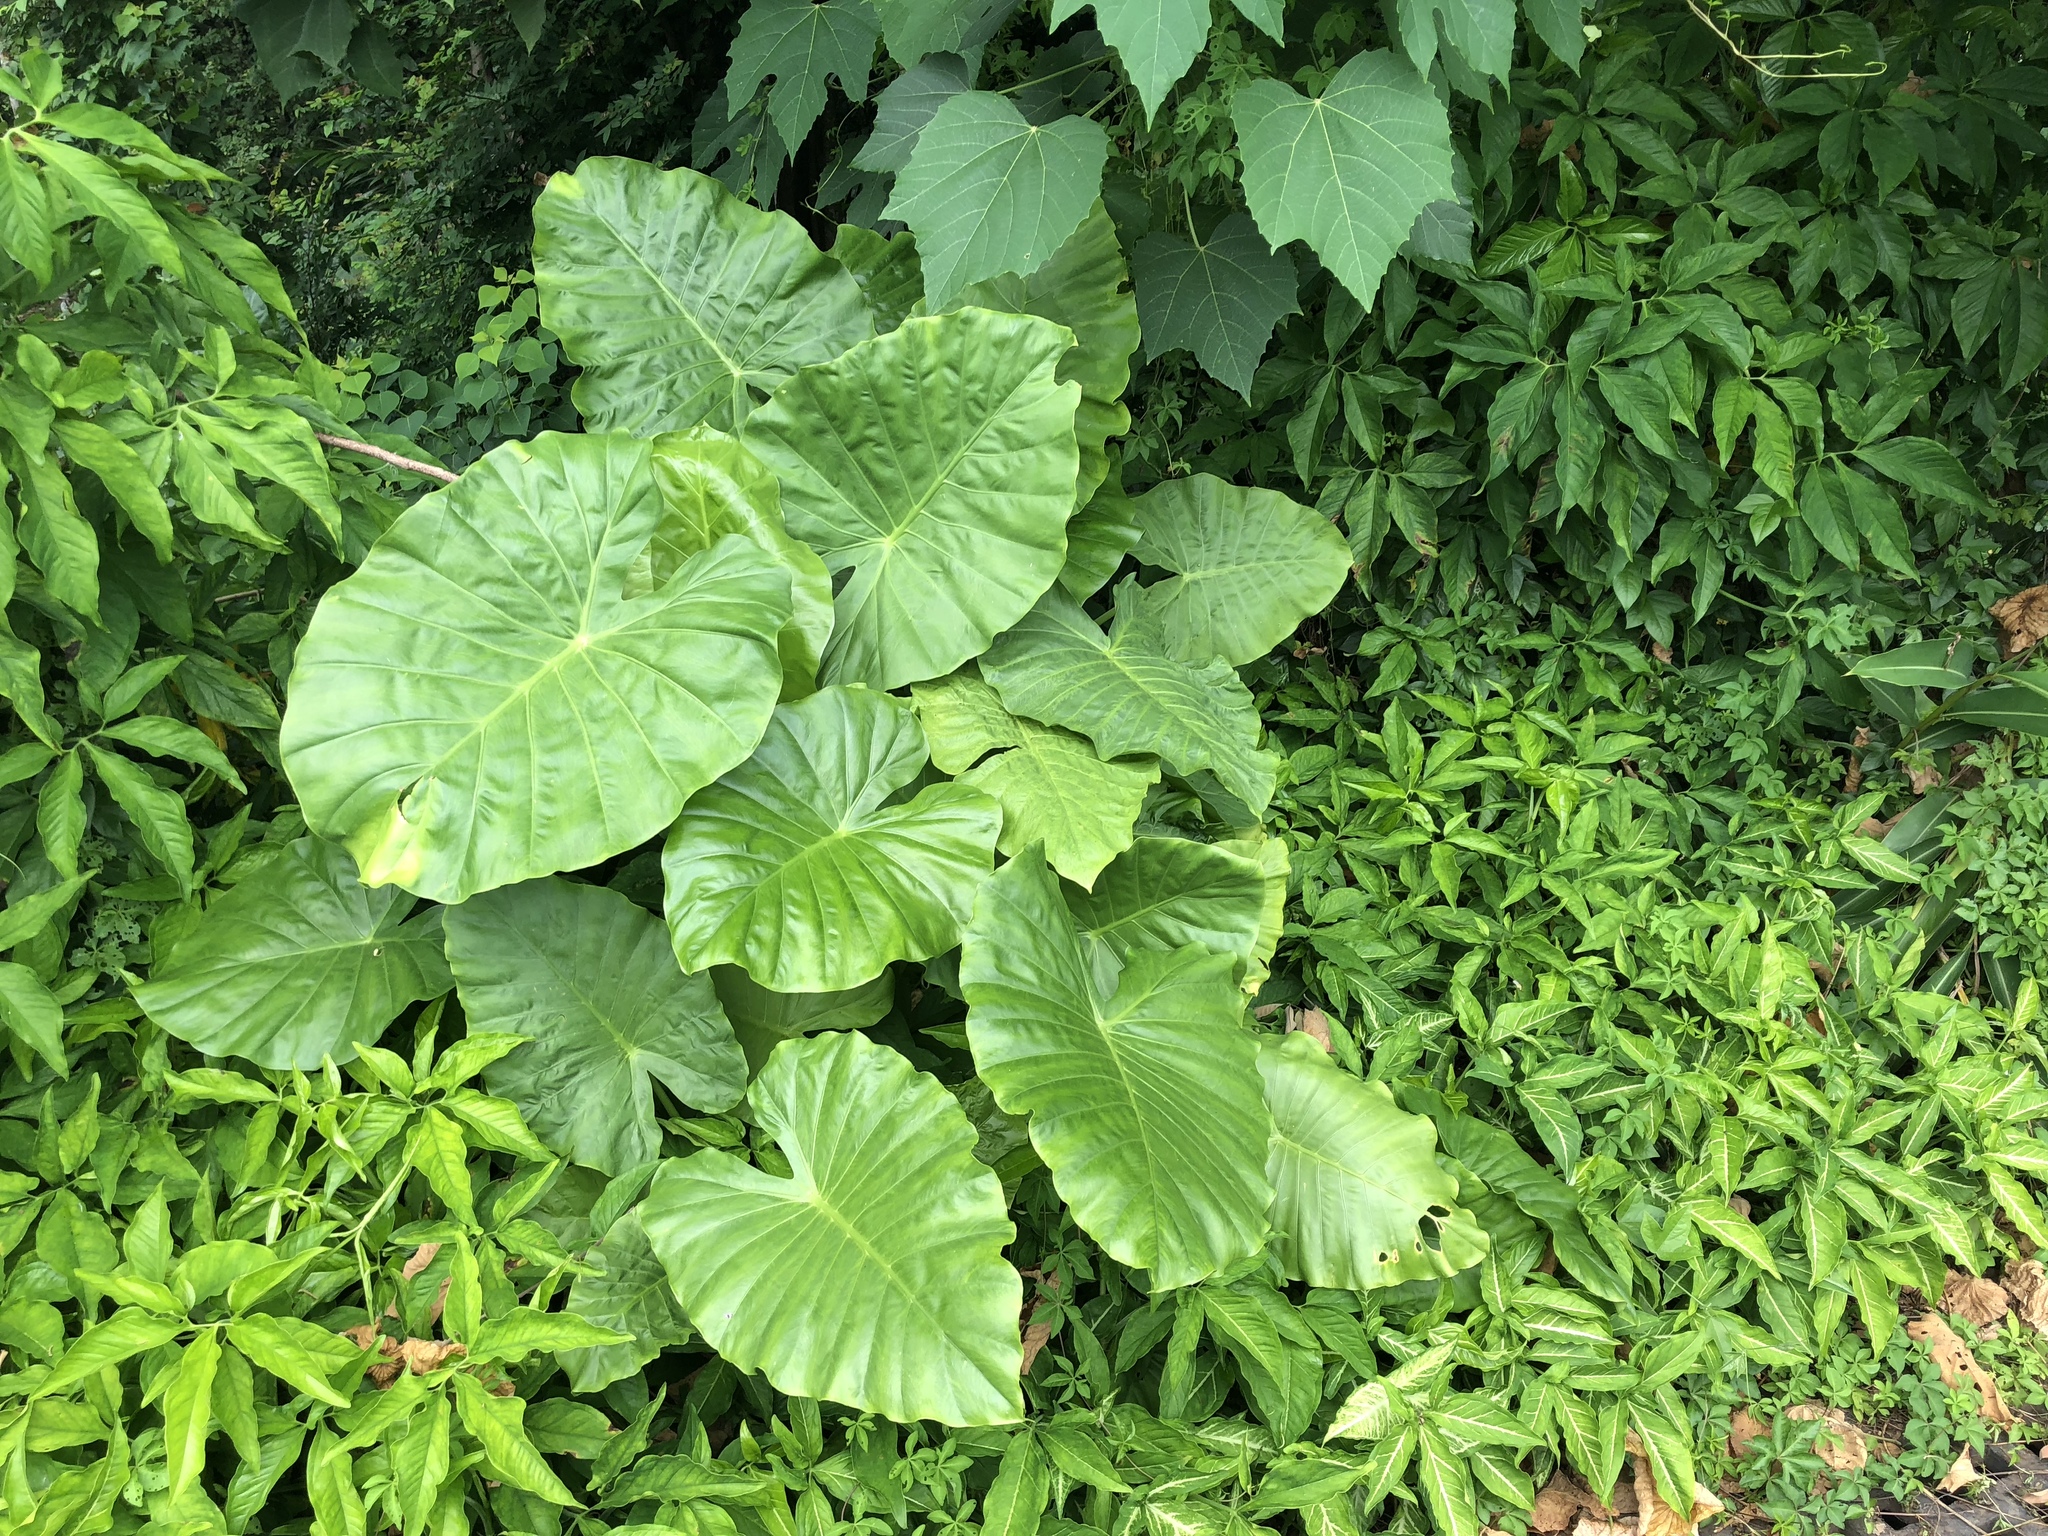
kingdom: Plantae
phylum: Tracheophyta
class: Liliopsida
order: Alismatales
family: Araceae
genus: Alocasia
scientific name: Alocasia odora
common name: Asian taro
